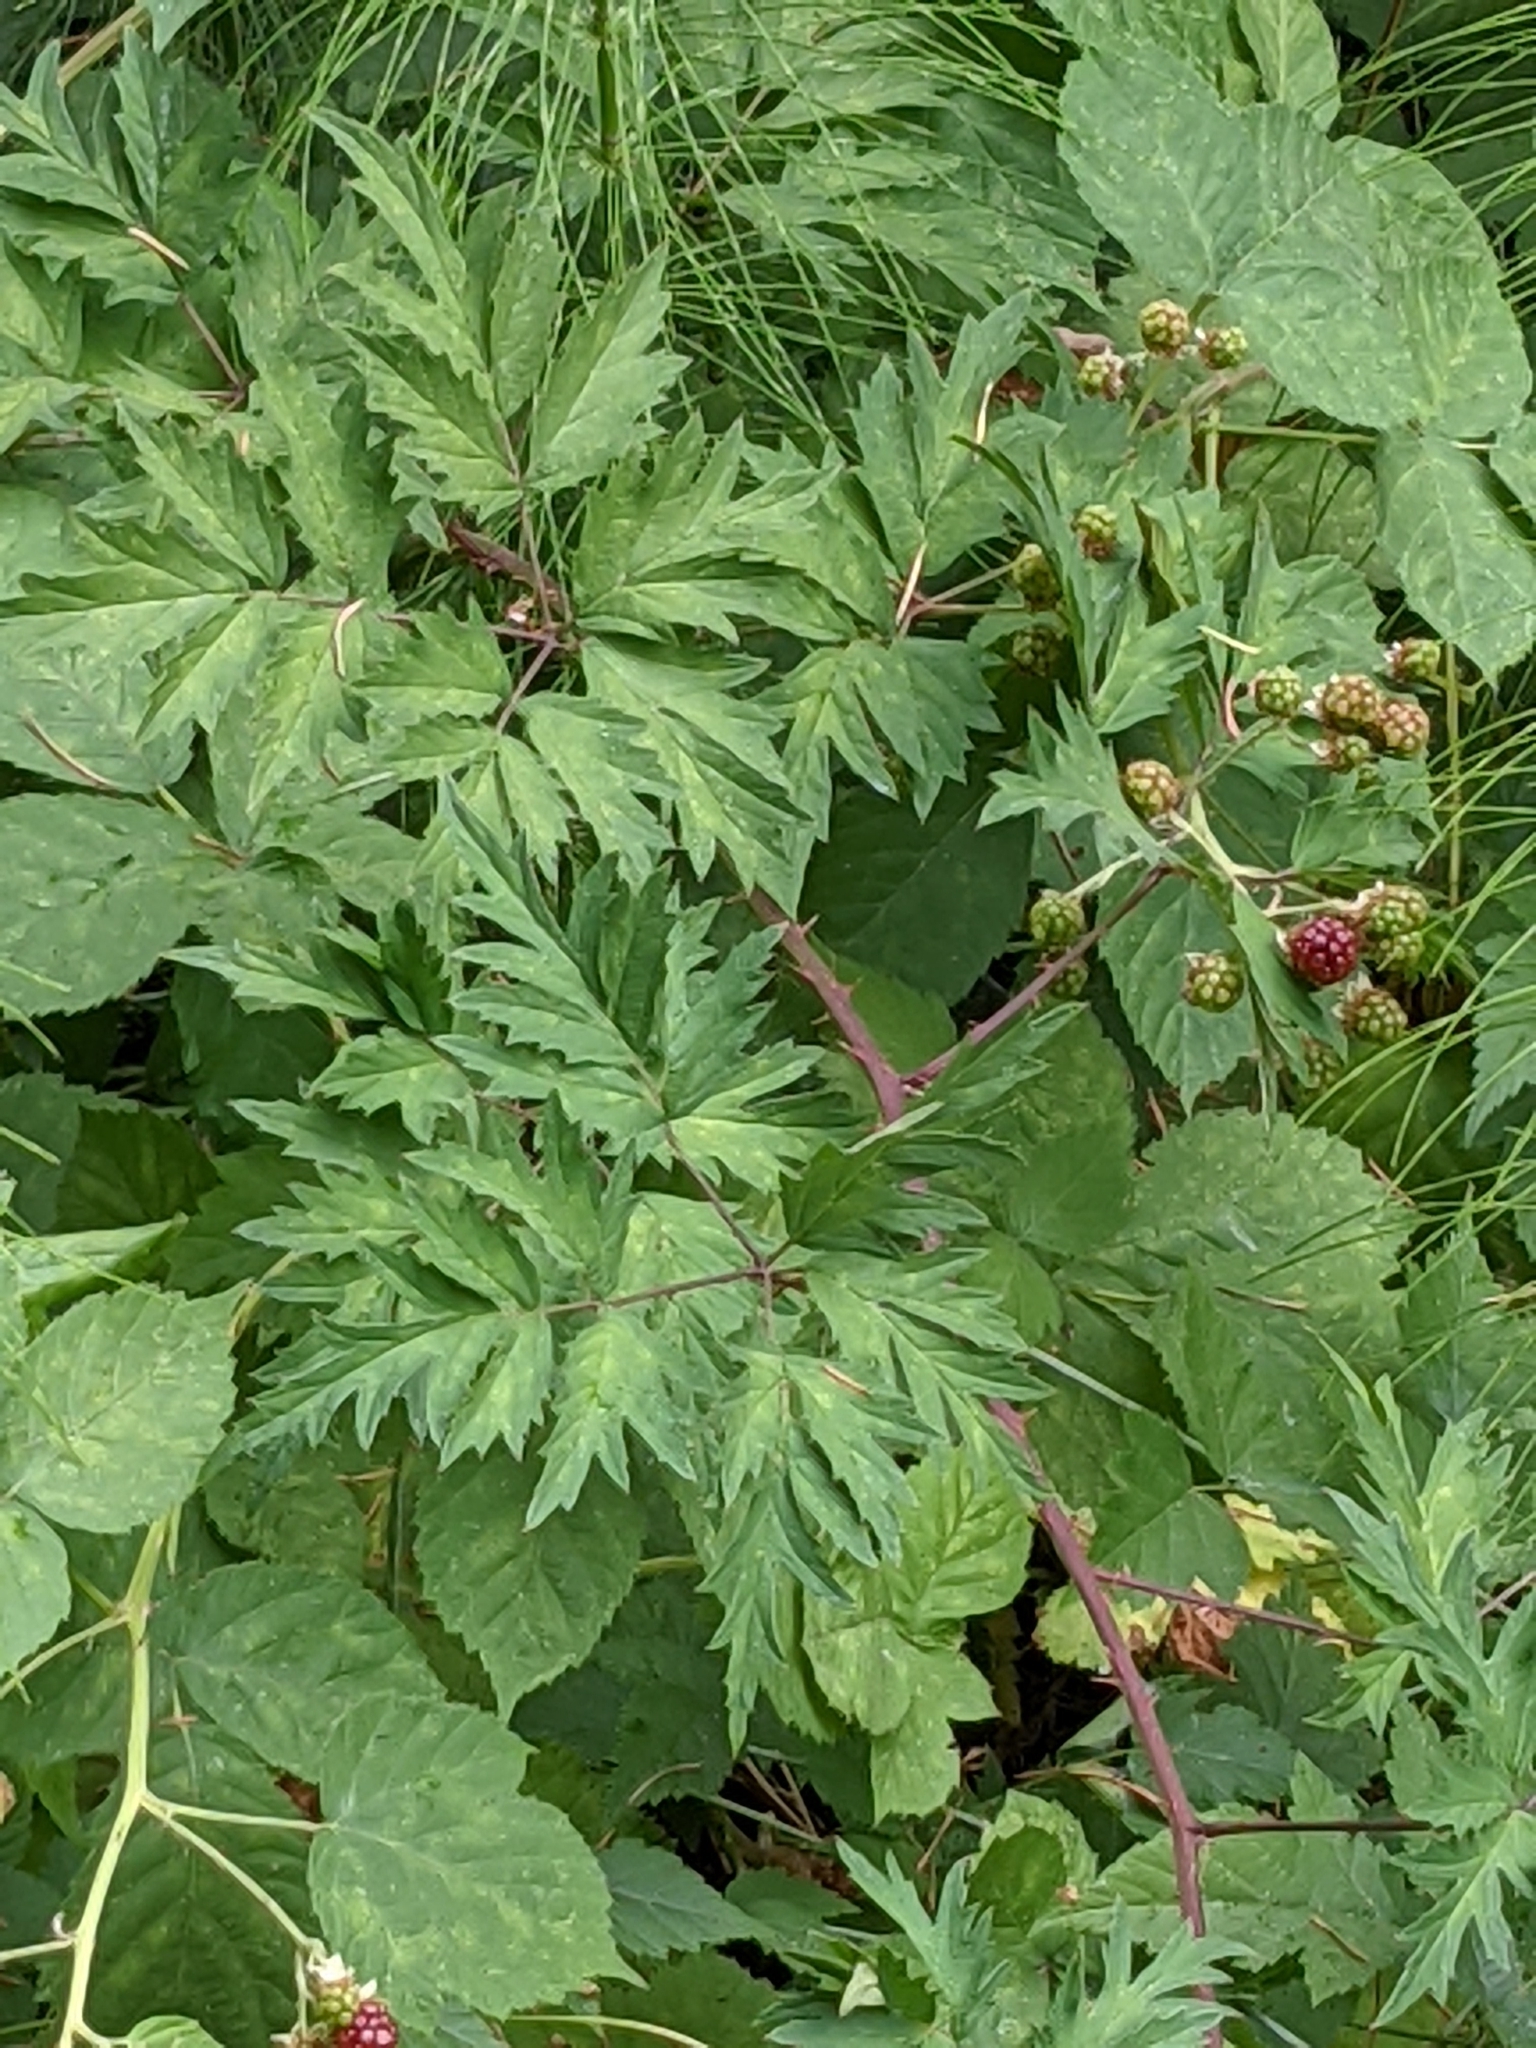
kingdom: Plantae
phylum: Tracheophyta
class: Magnoliopsida
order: Rosales
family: Rosaceae
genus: Rubus
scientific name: Rubus laciniatus
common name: Evergreen blackberry
